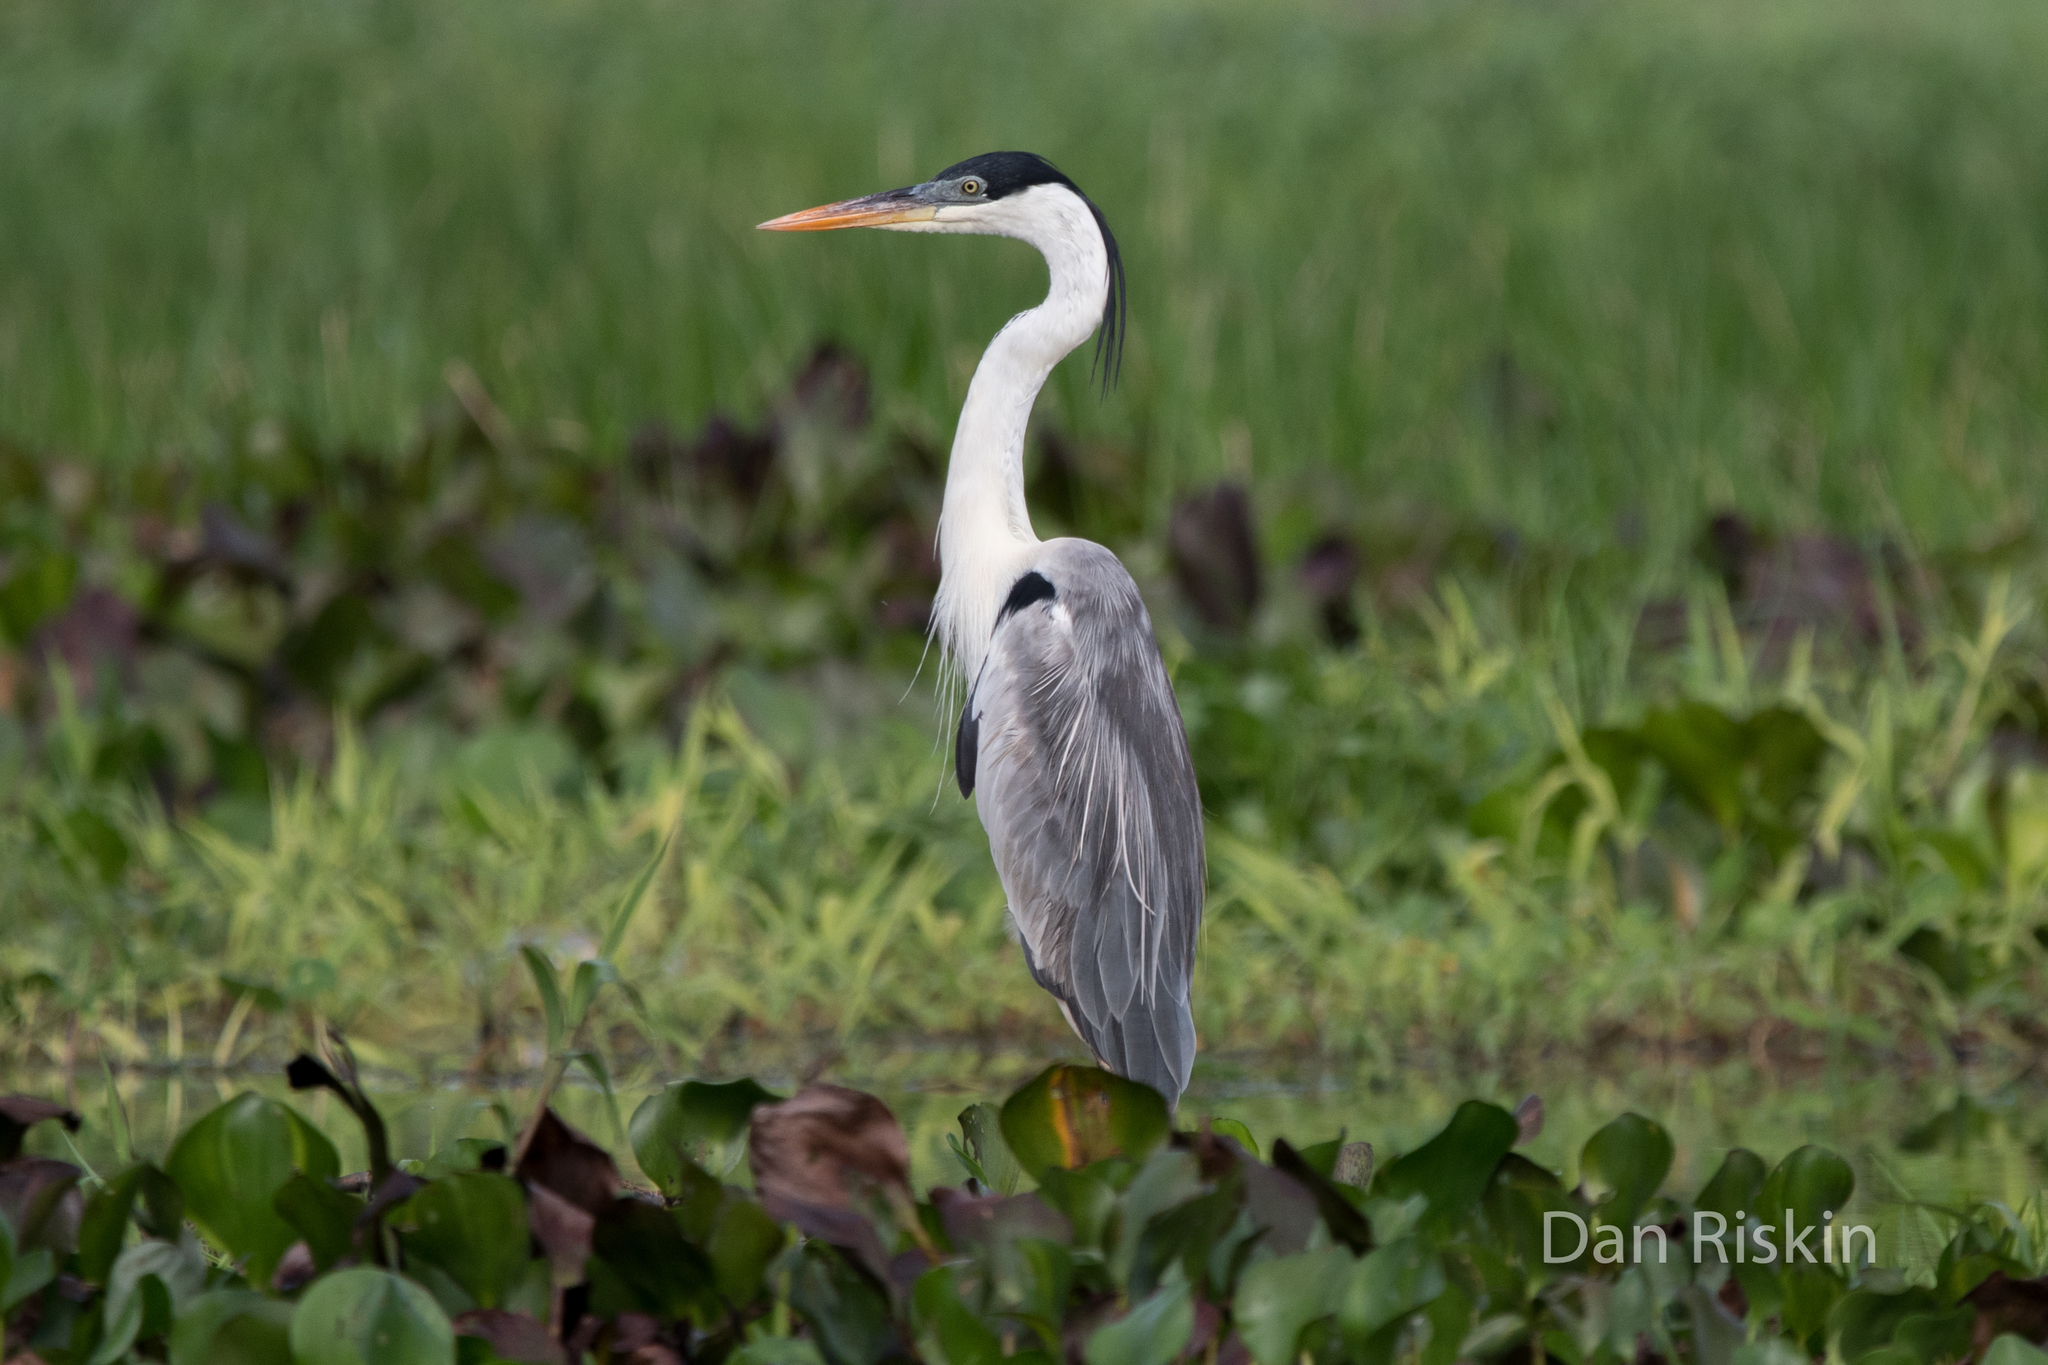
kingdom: Animalia
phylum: Chordata
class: Aves
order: Pelecaniformes
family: Ardeidae
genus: Ardea
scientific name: Ardea cocoi
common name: Cocoi heron
